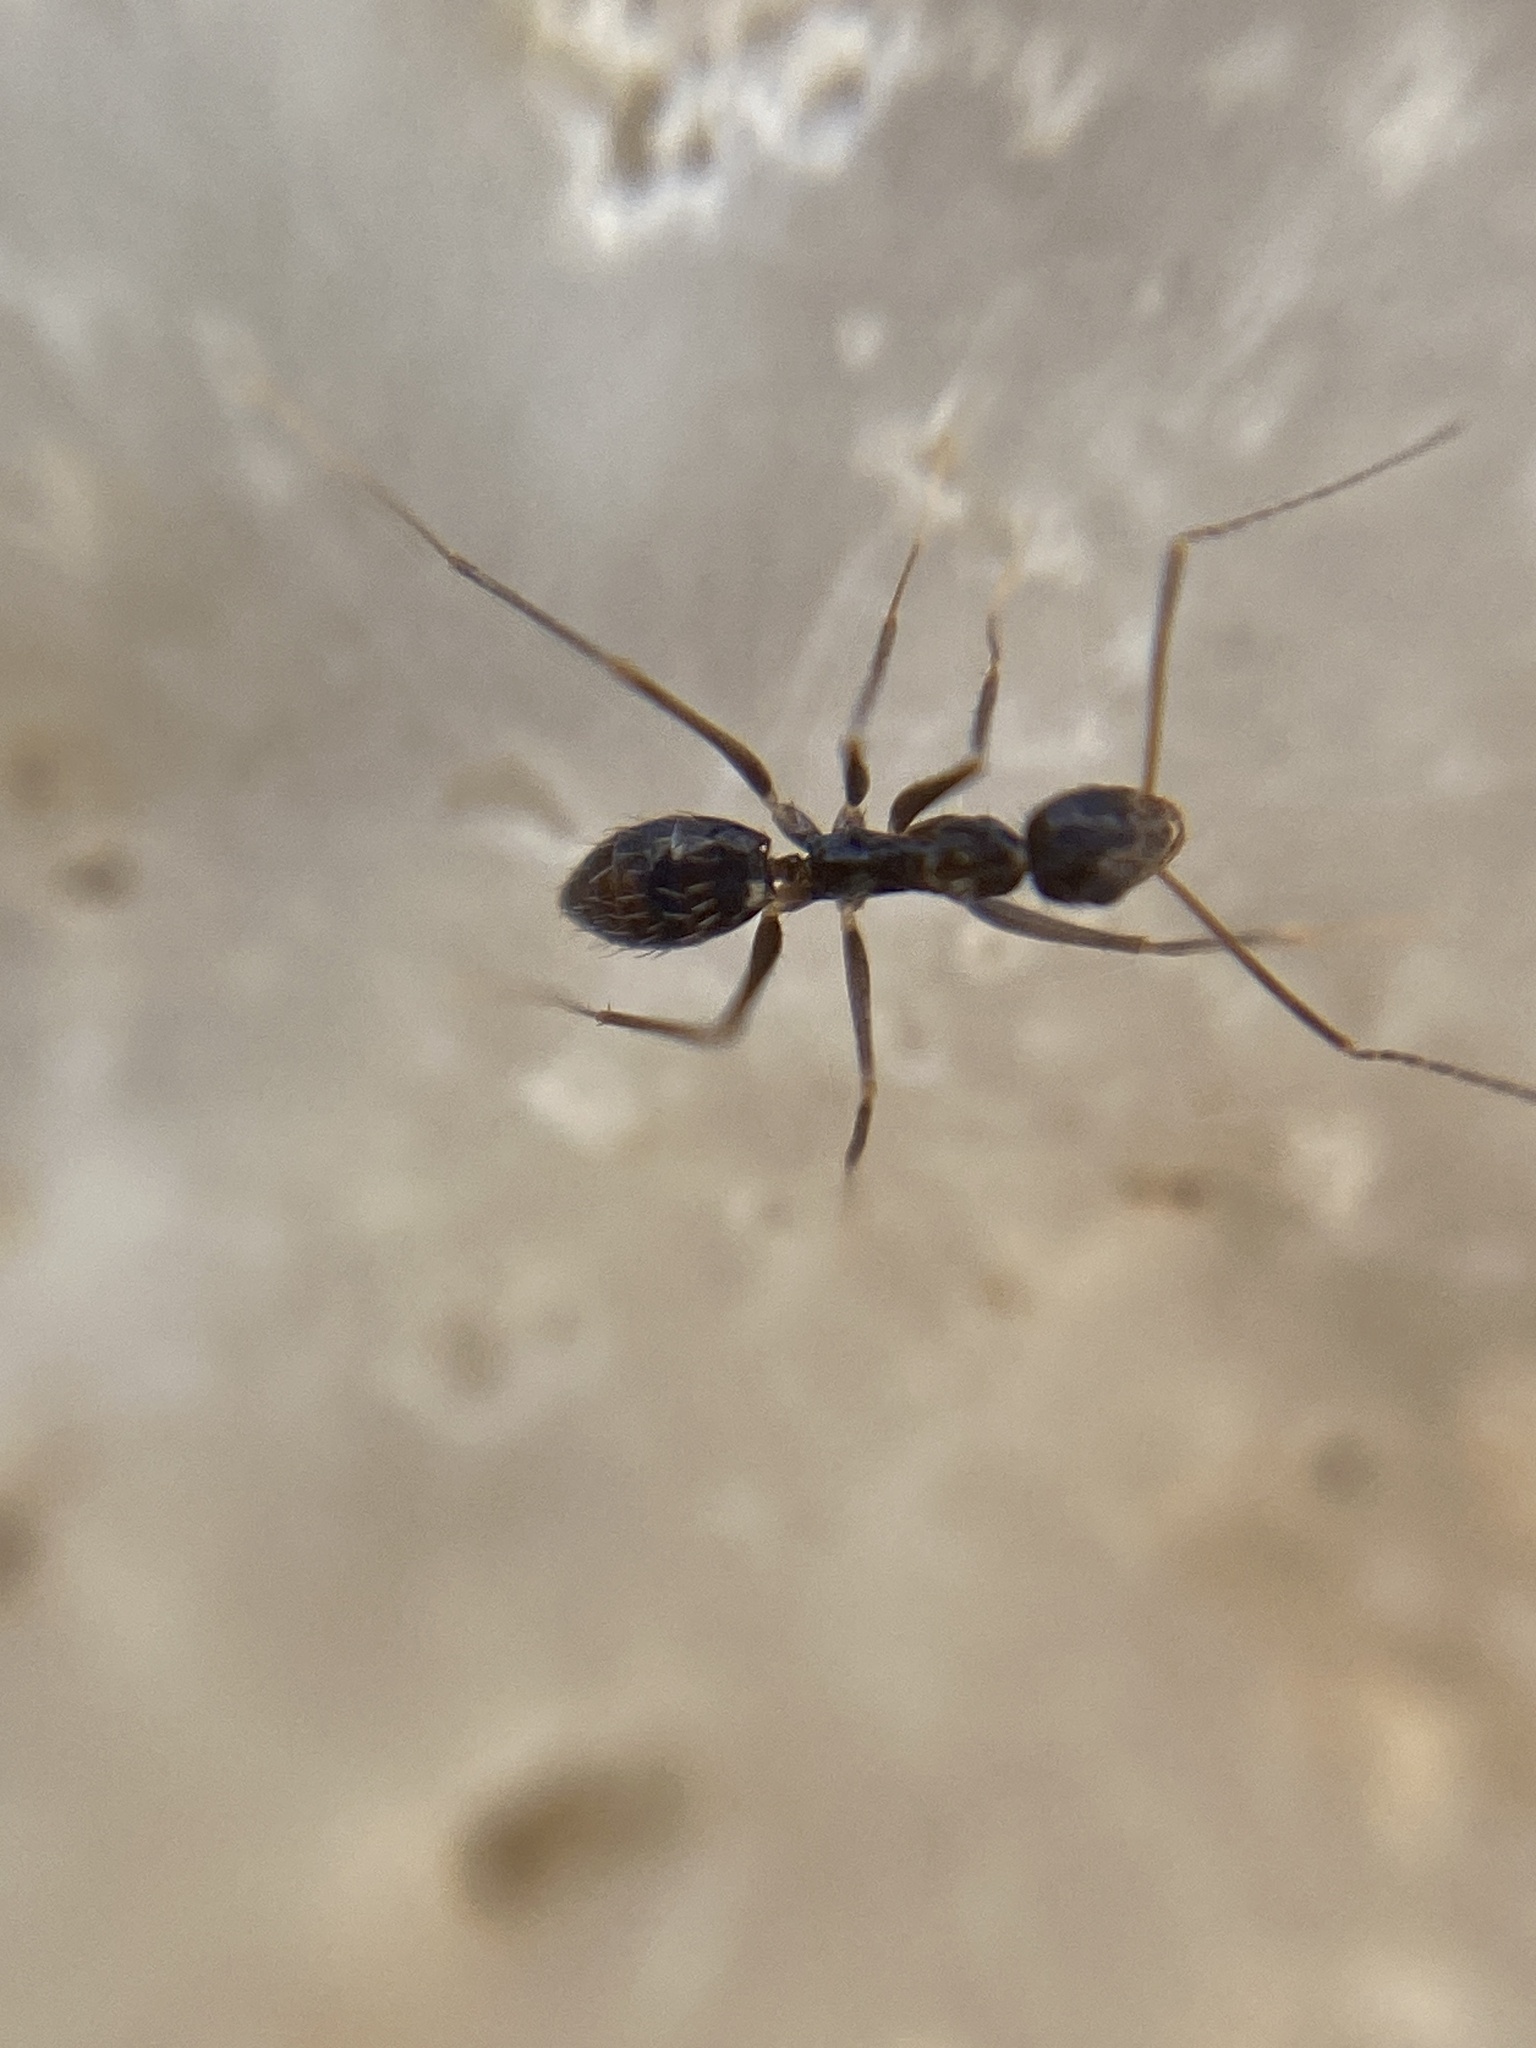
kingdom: Animalia
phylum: Arthropoda
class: Insecta
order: Hymenoptera
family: Formicidae
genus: Paratrechina
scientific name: Paratrechina longicornis
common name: Longhorned crazy ant
